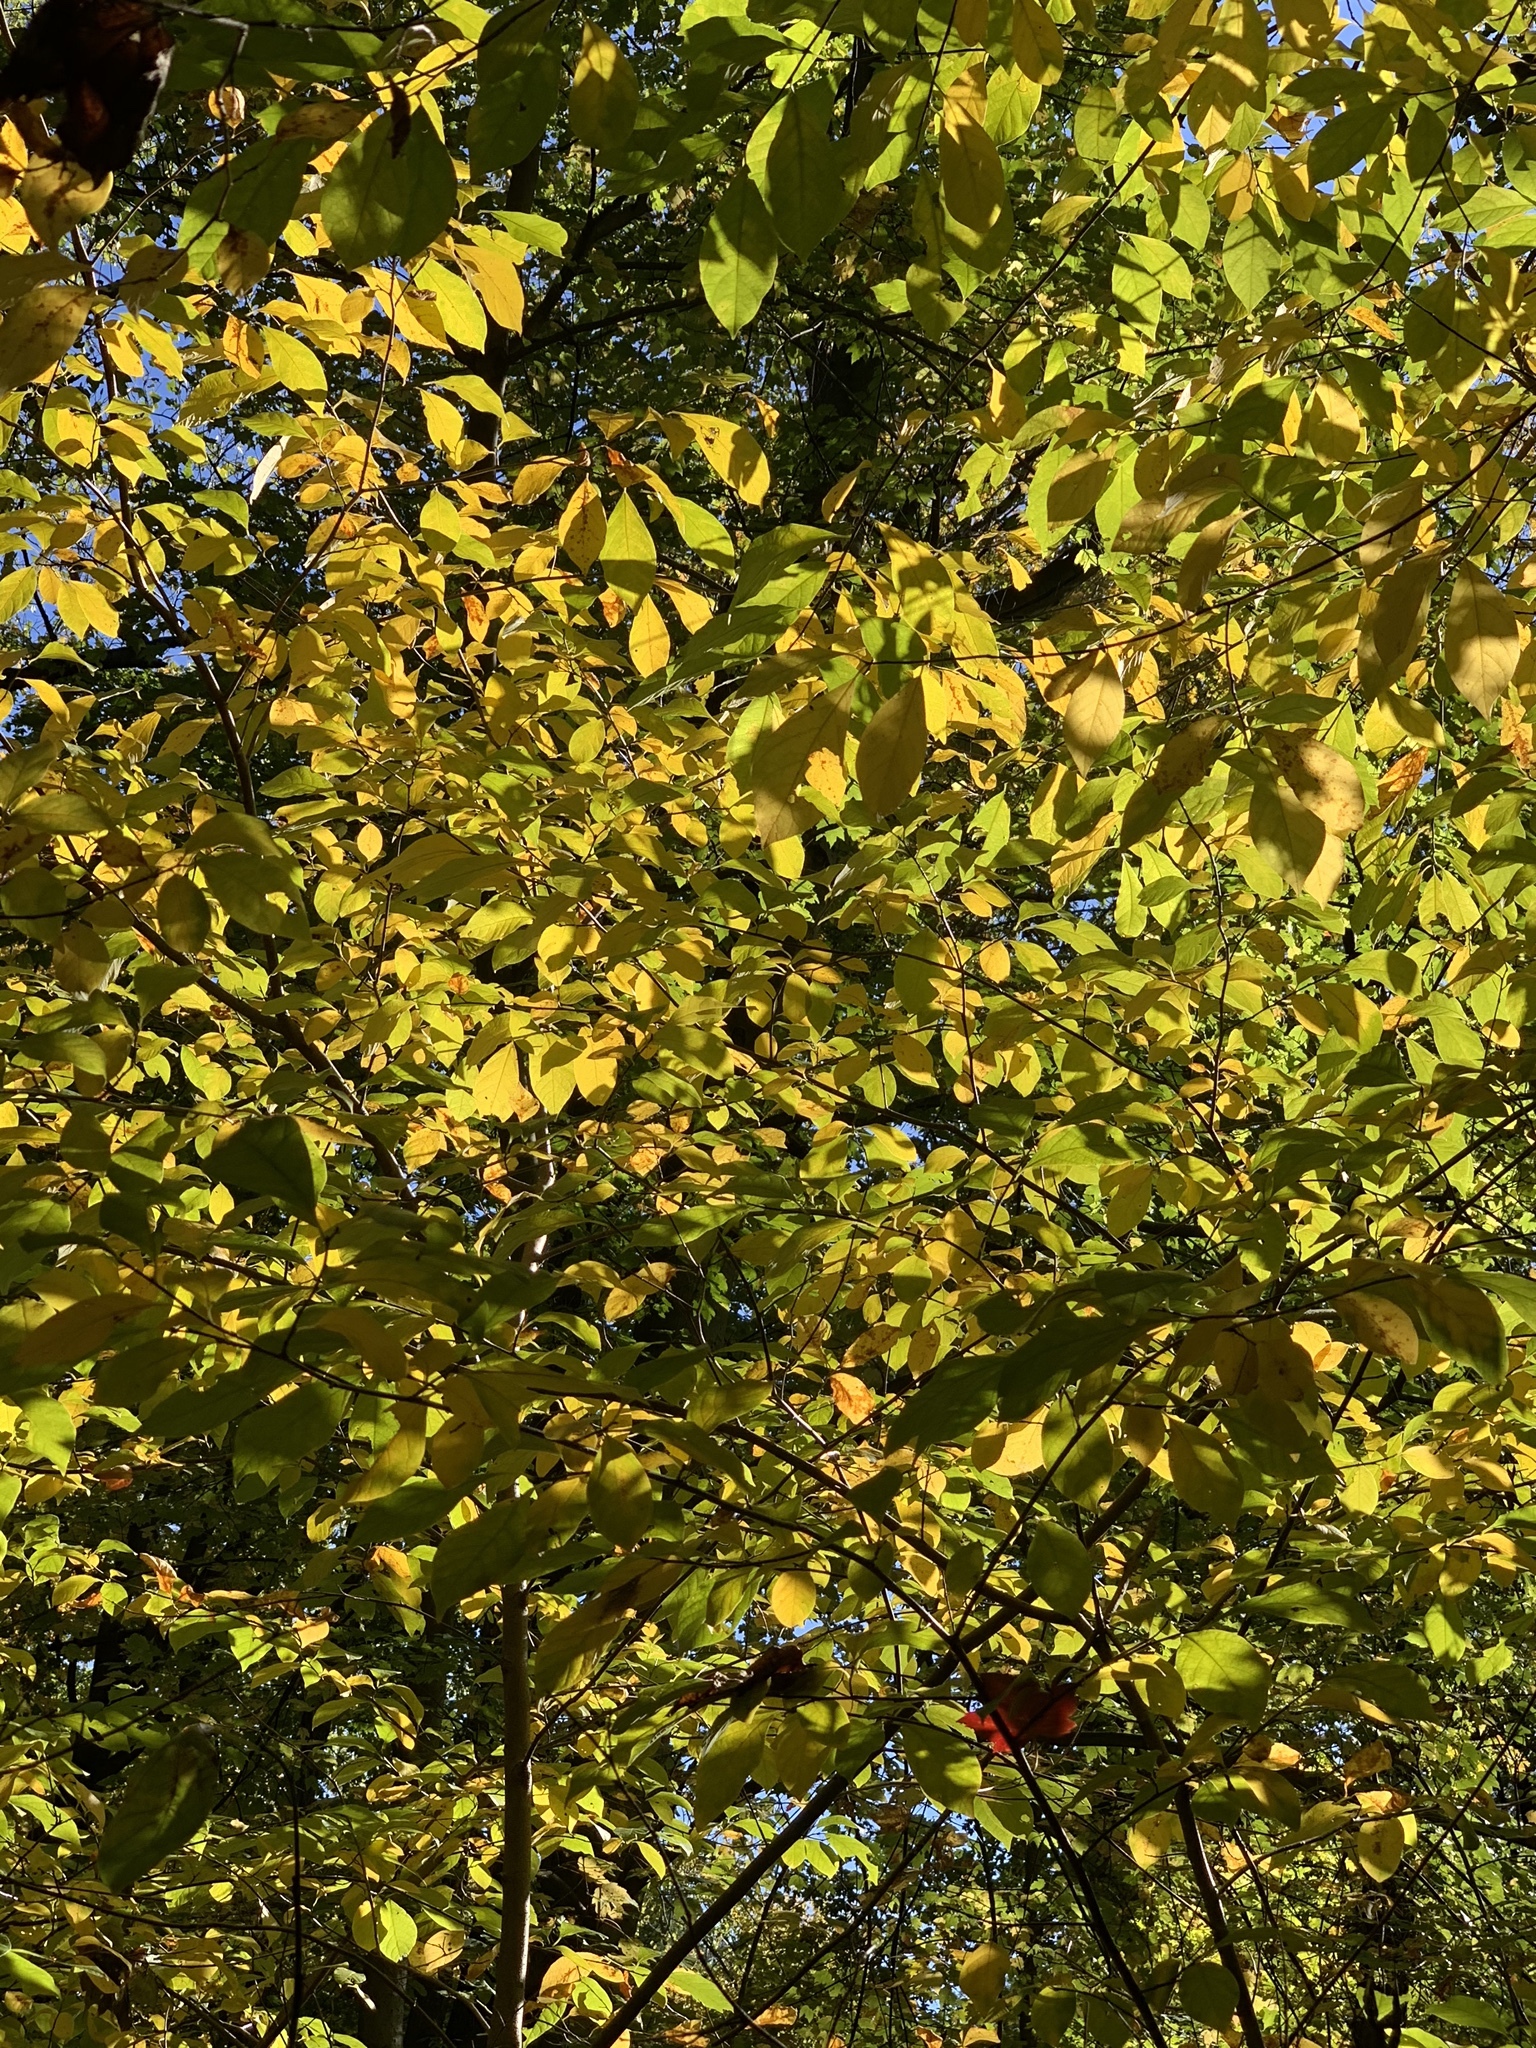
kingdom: Plantae
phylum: Tracheophyta
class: Magnoliopsida
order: Laurales
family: Lauraceae
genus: Lindera
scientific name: Lindera benzoin
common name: Spicebush
